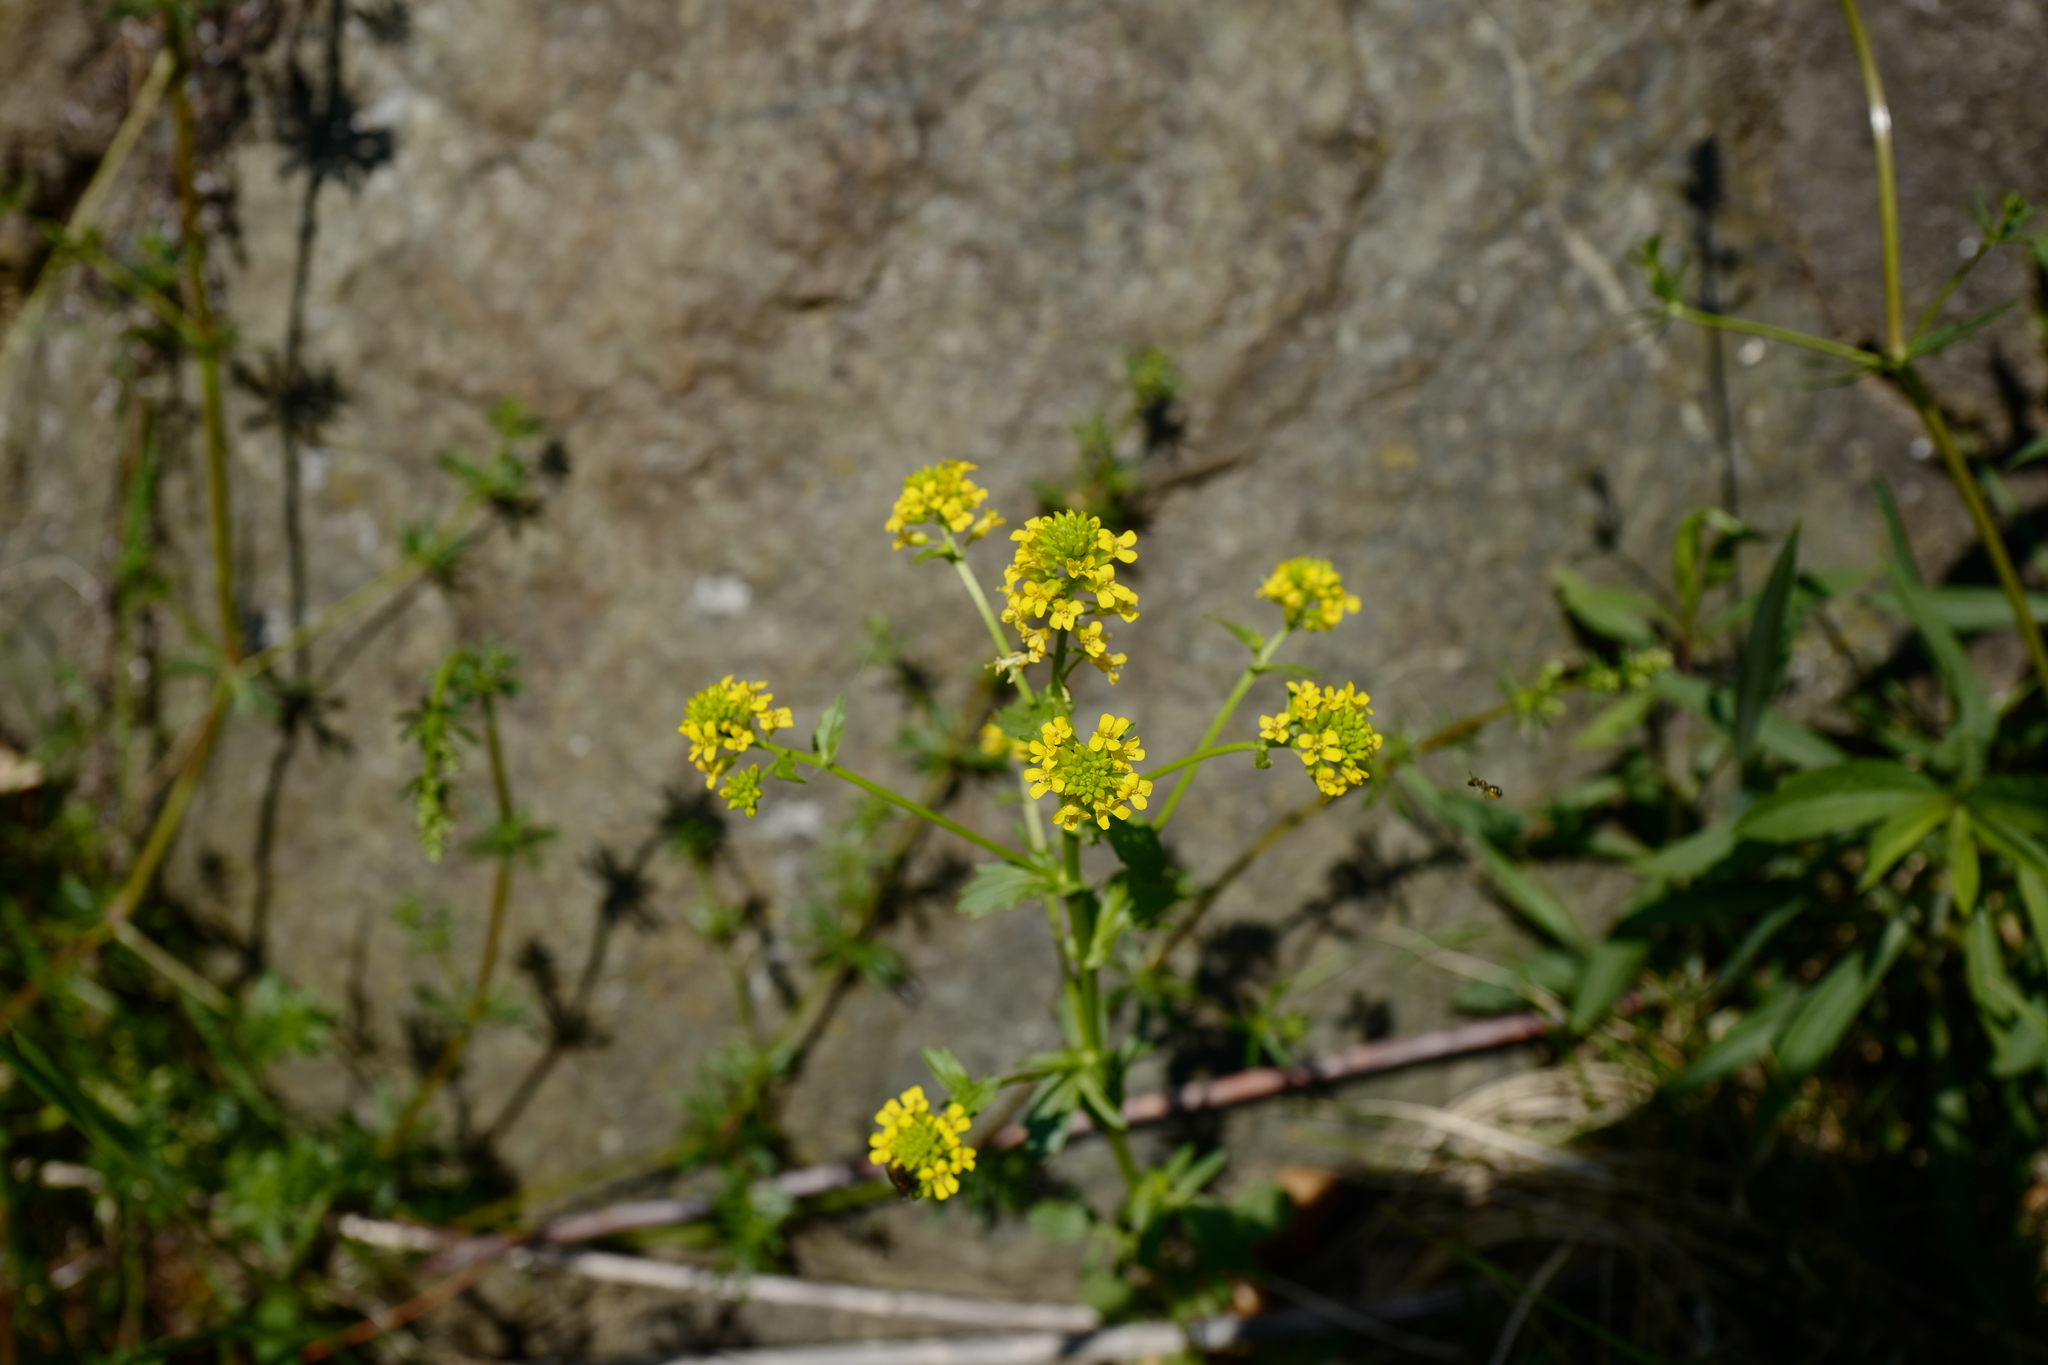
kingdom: Plantae
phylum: Tracheophyta
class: Magnoliopsida
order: Brassicales
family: Brassicaceae
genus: Barbarea
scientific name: Barbarea vulgaris
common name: Cressy-greens
